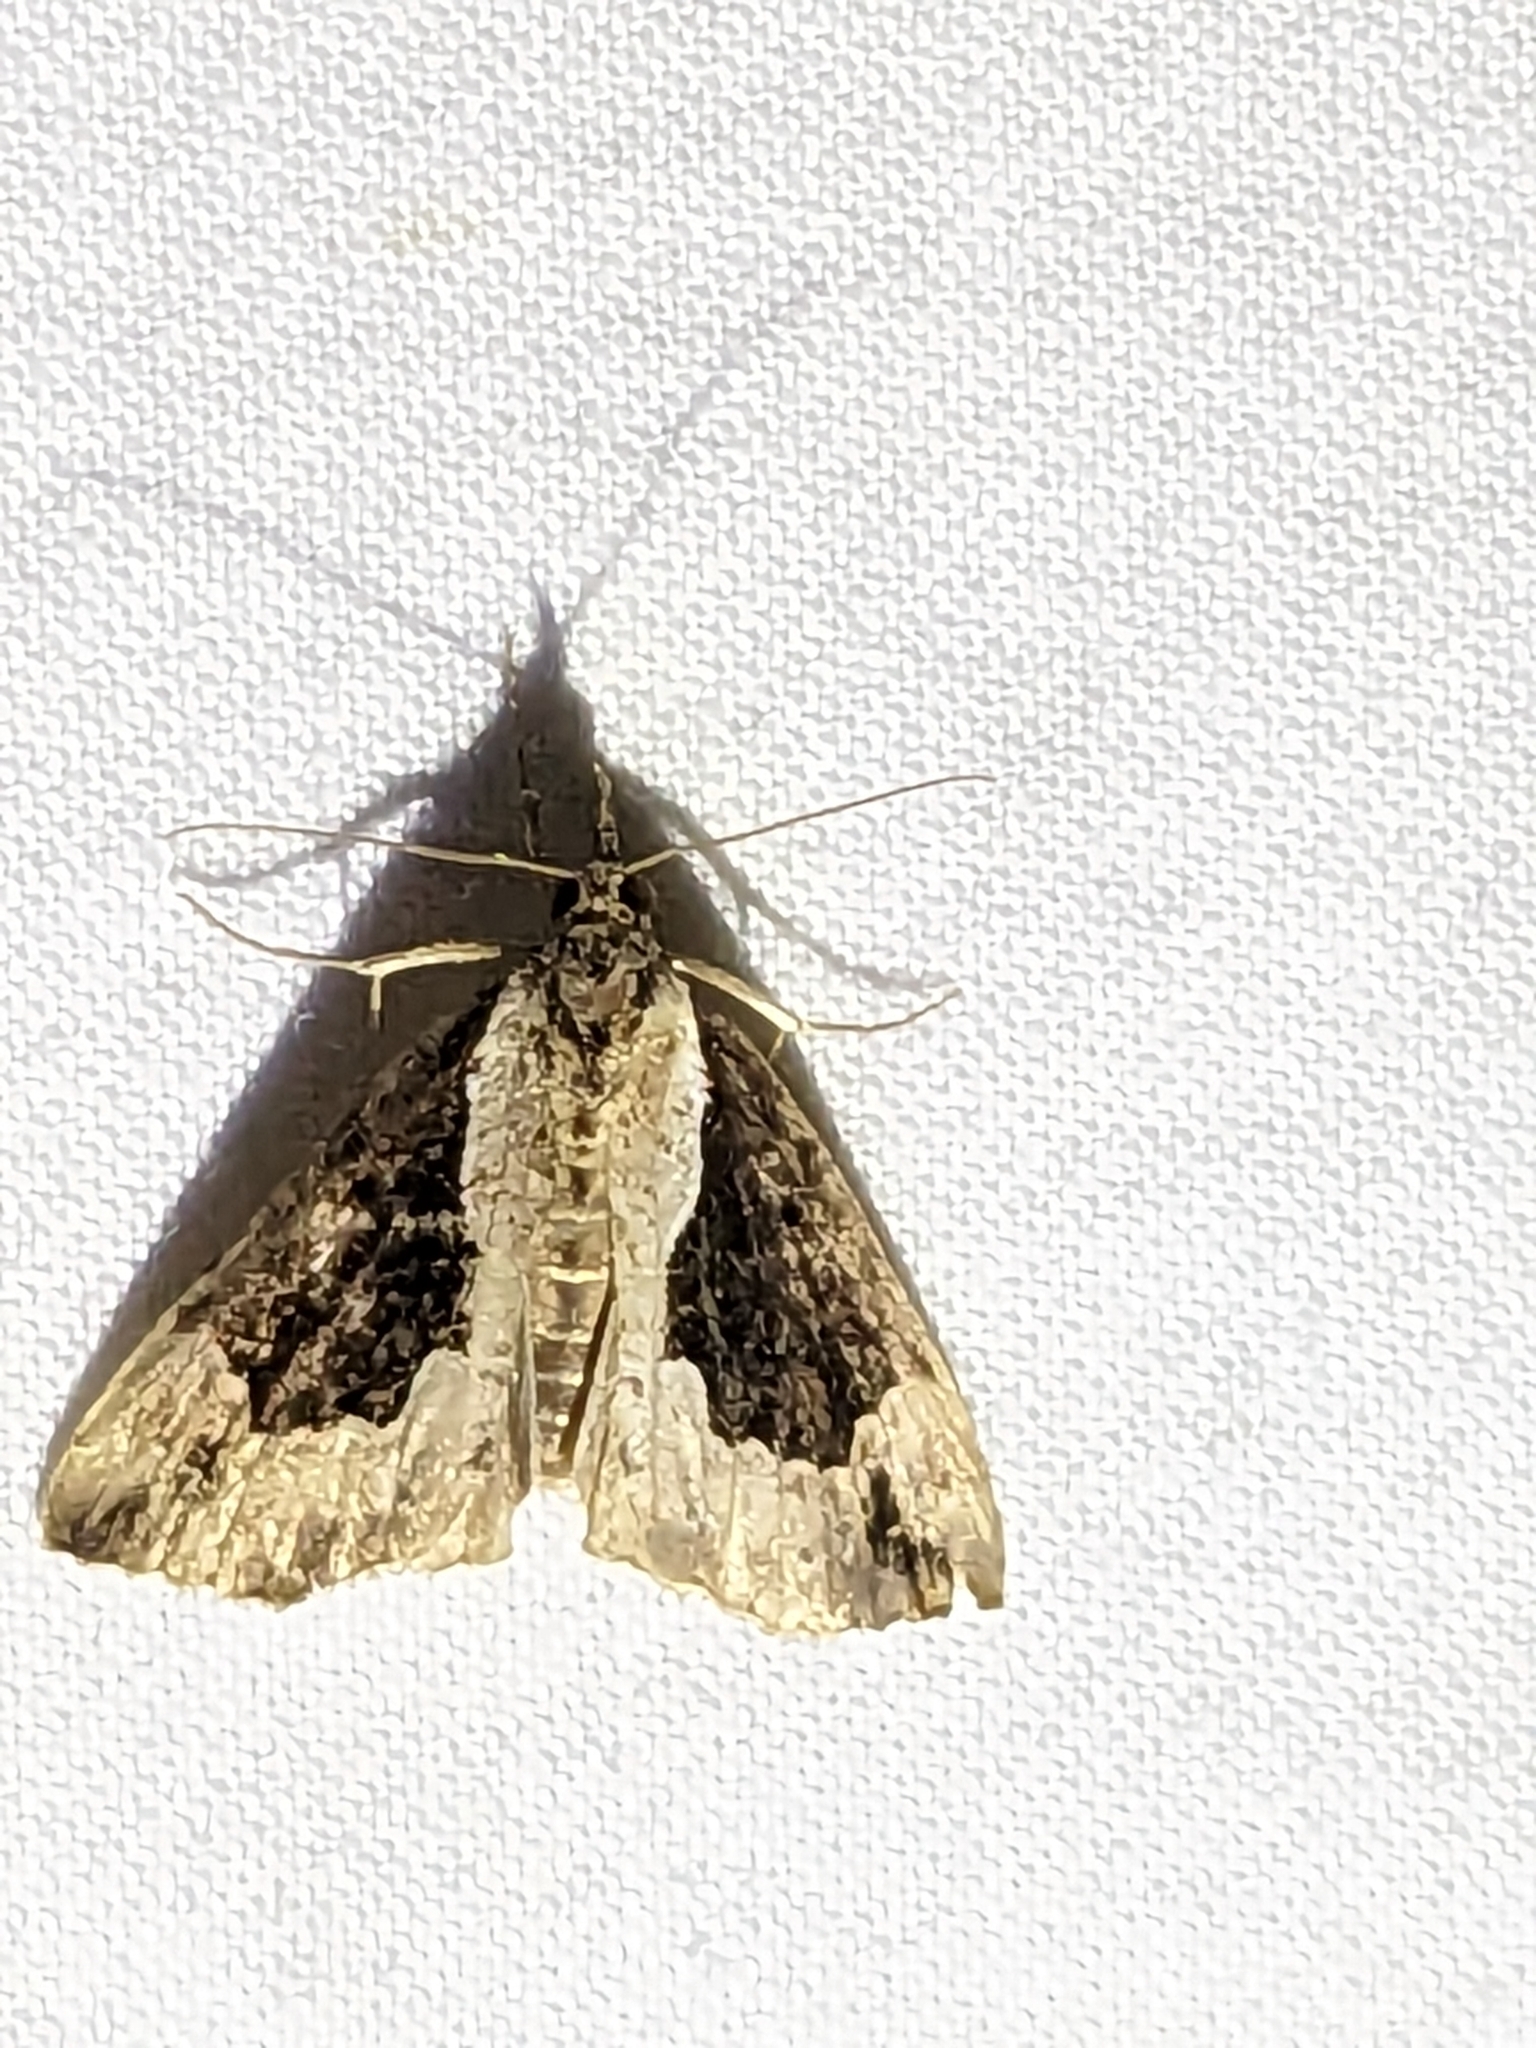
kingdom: Animalia
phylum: Arthropoda
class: Insecta
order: Lepidoptera
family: Erebidae
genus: Hypena
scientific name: Hypena baltimoralis
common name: Baltimore snout
